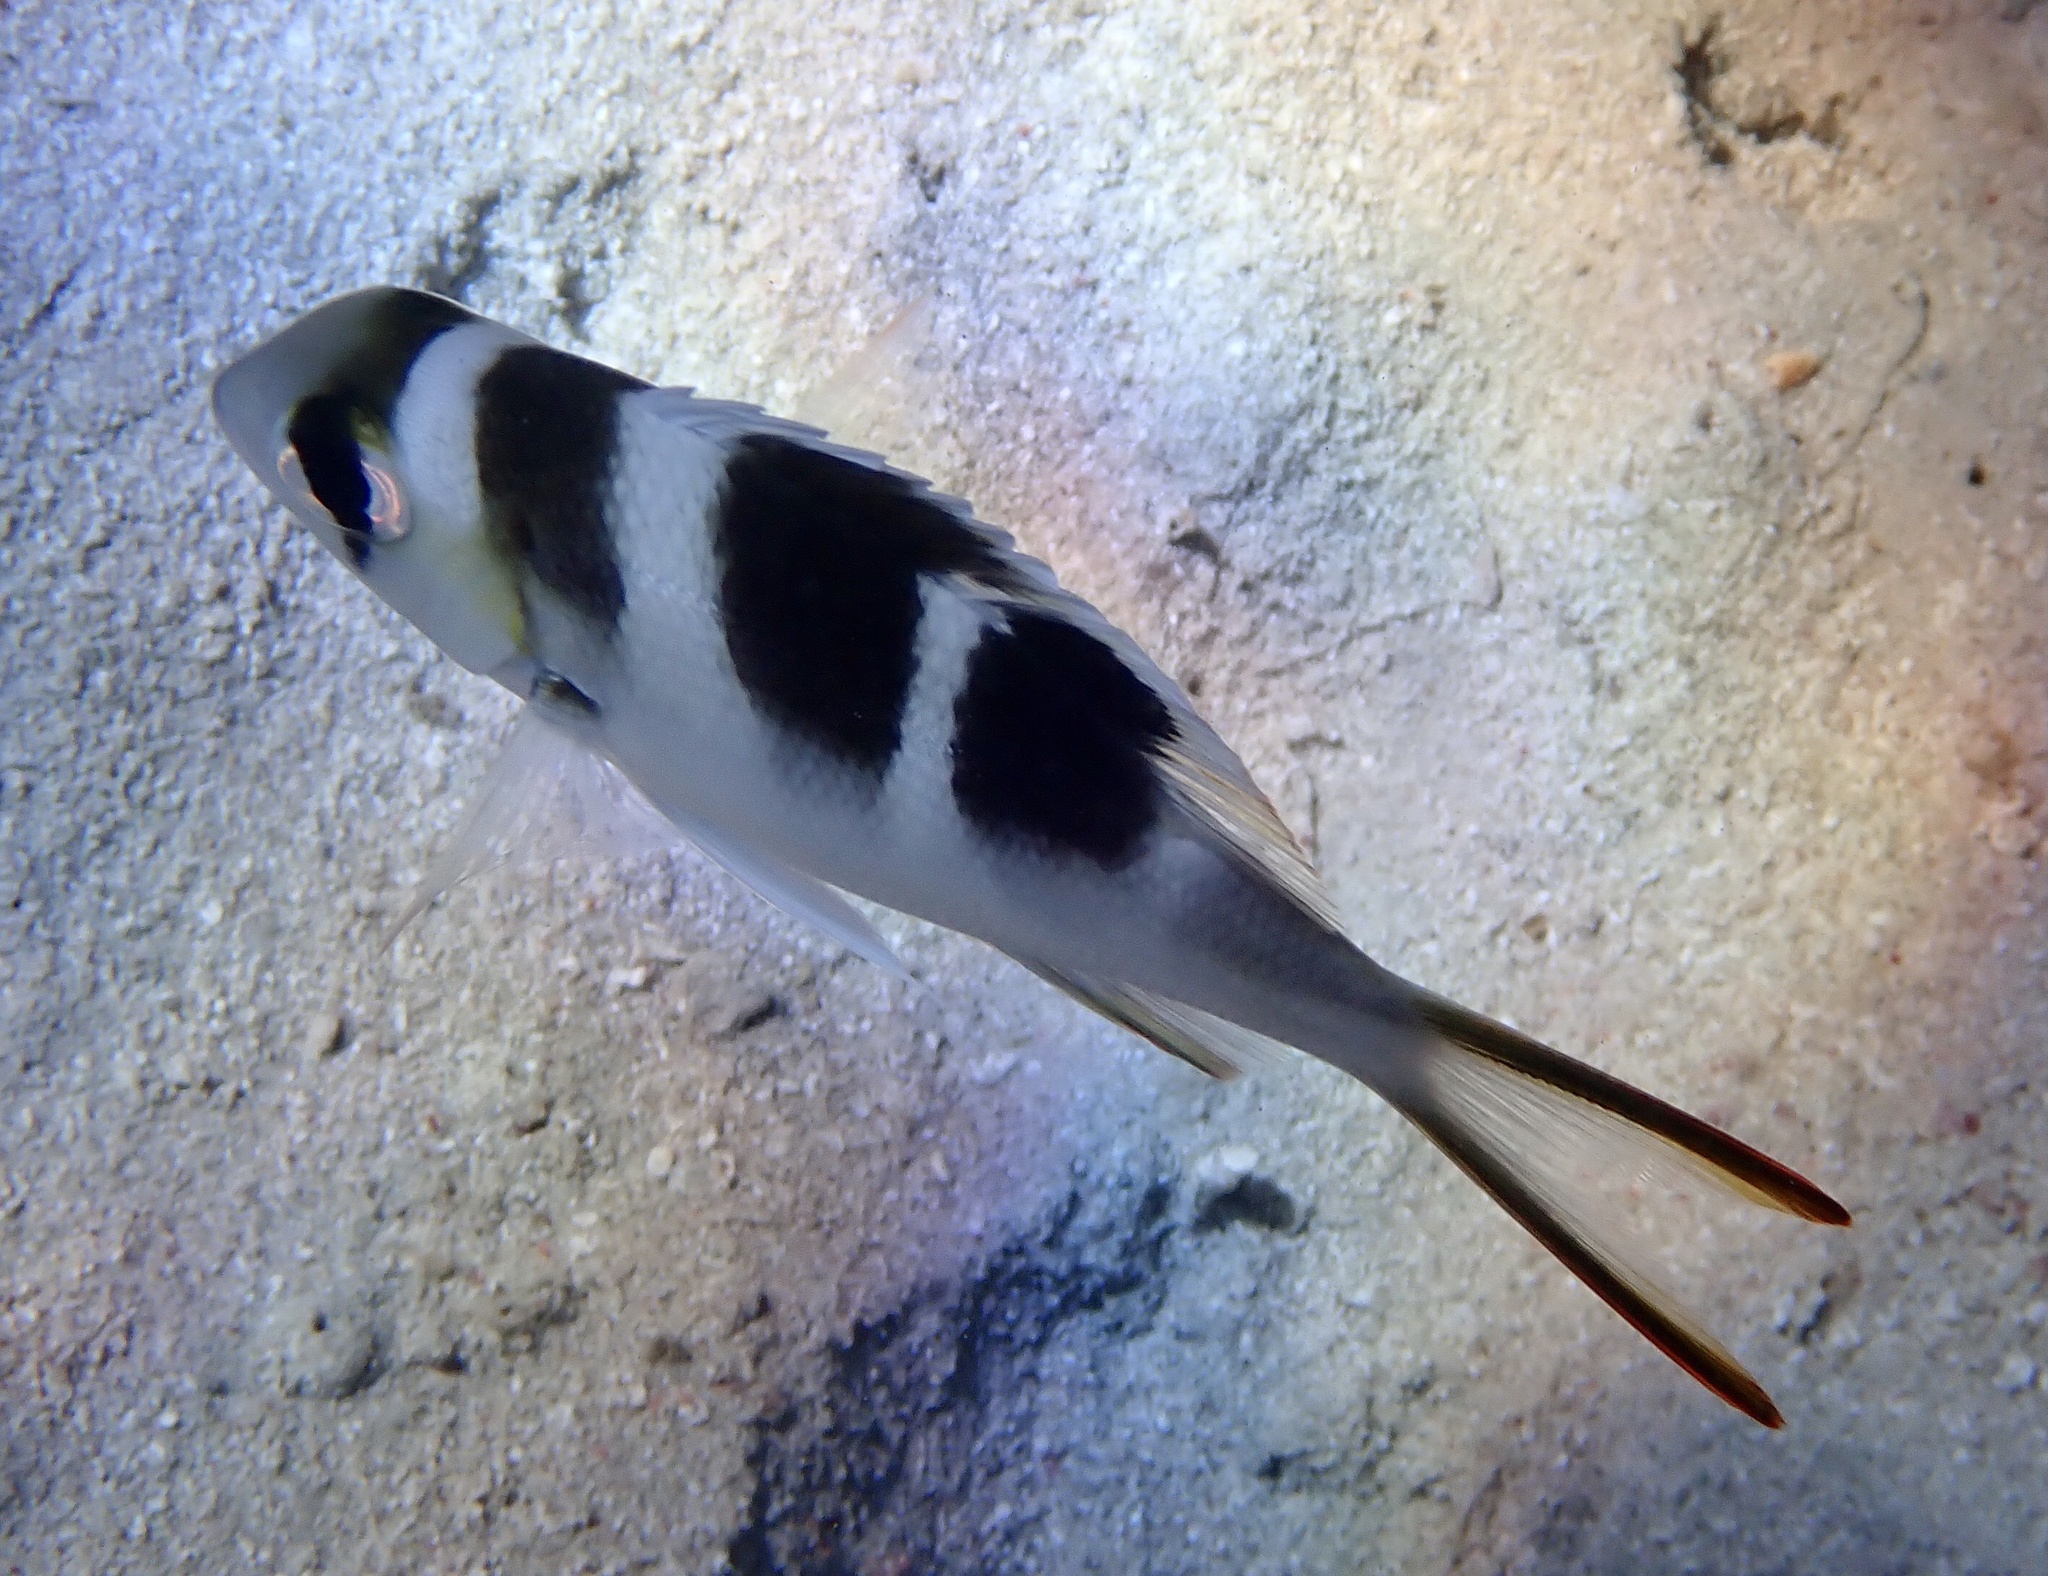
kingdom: Animalia
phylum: Chordata
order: Perciformes
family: Lethrinidae
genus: Monotaxis
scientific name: Monotaxis grandoculis
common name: Bigeye emperor
